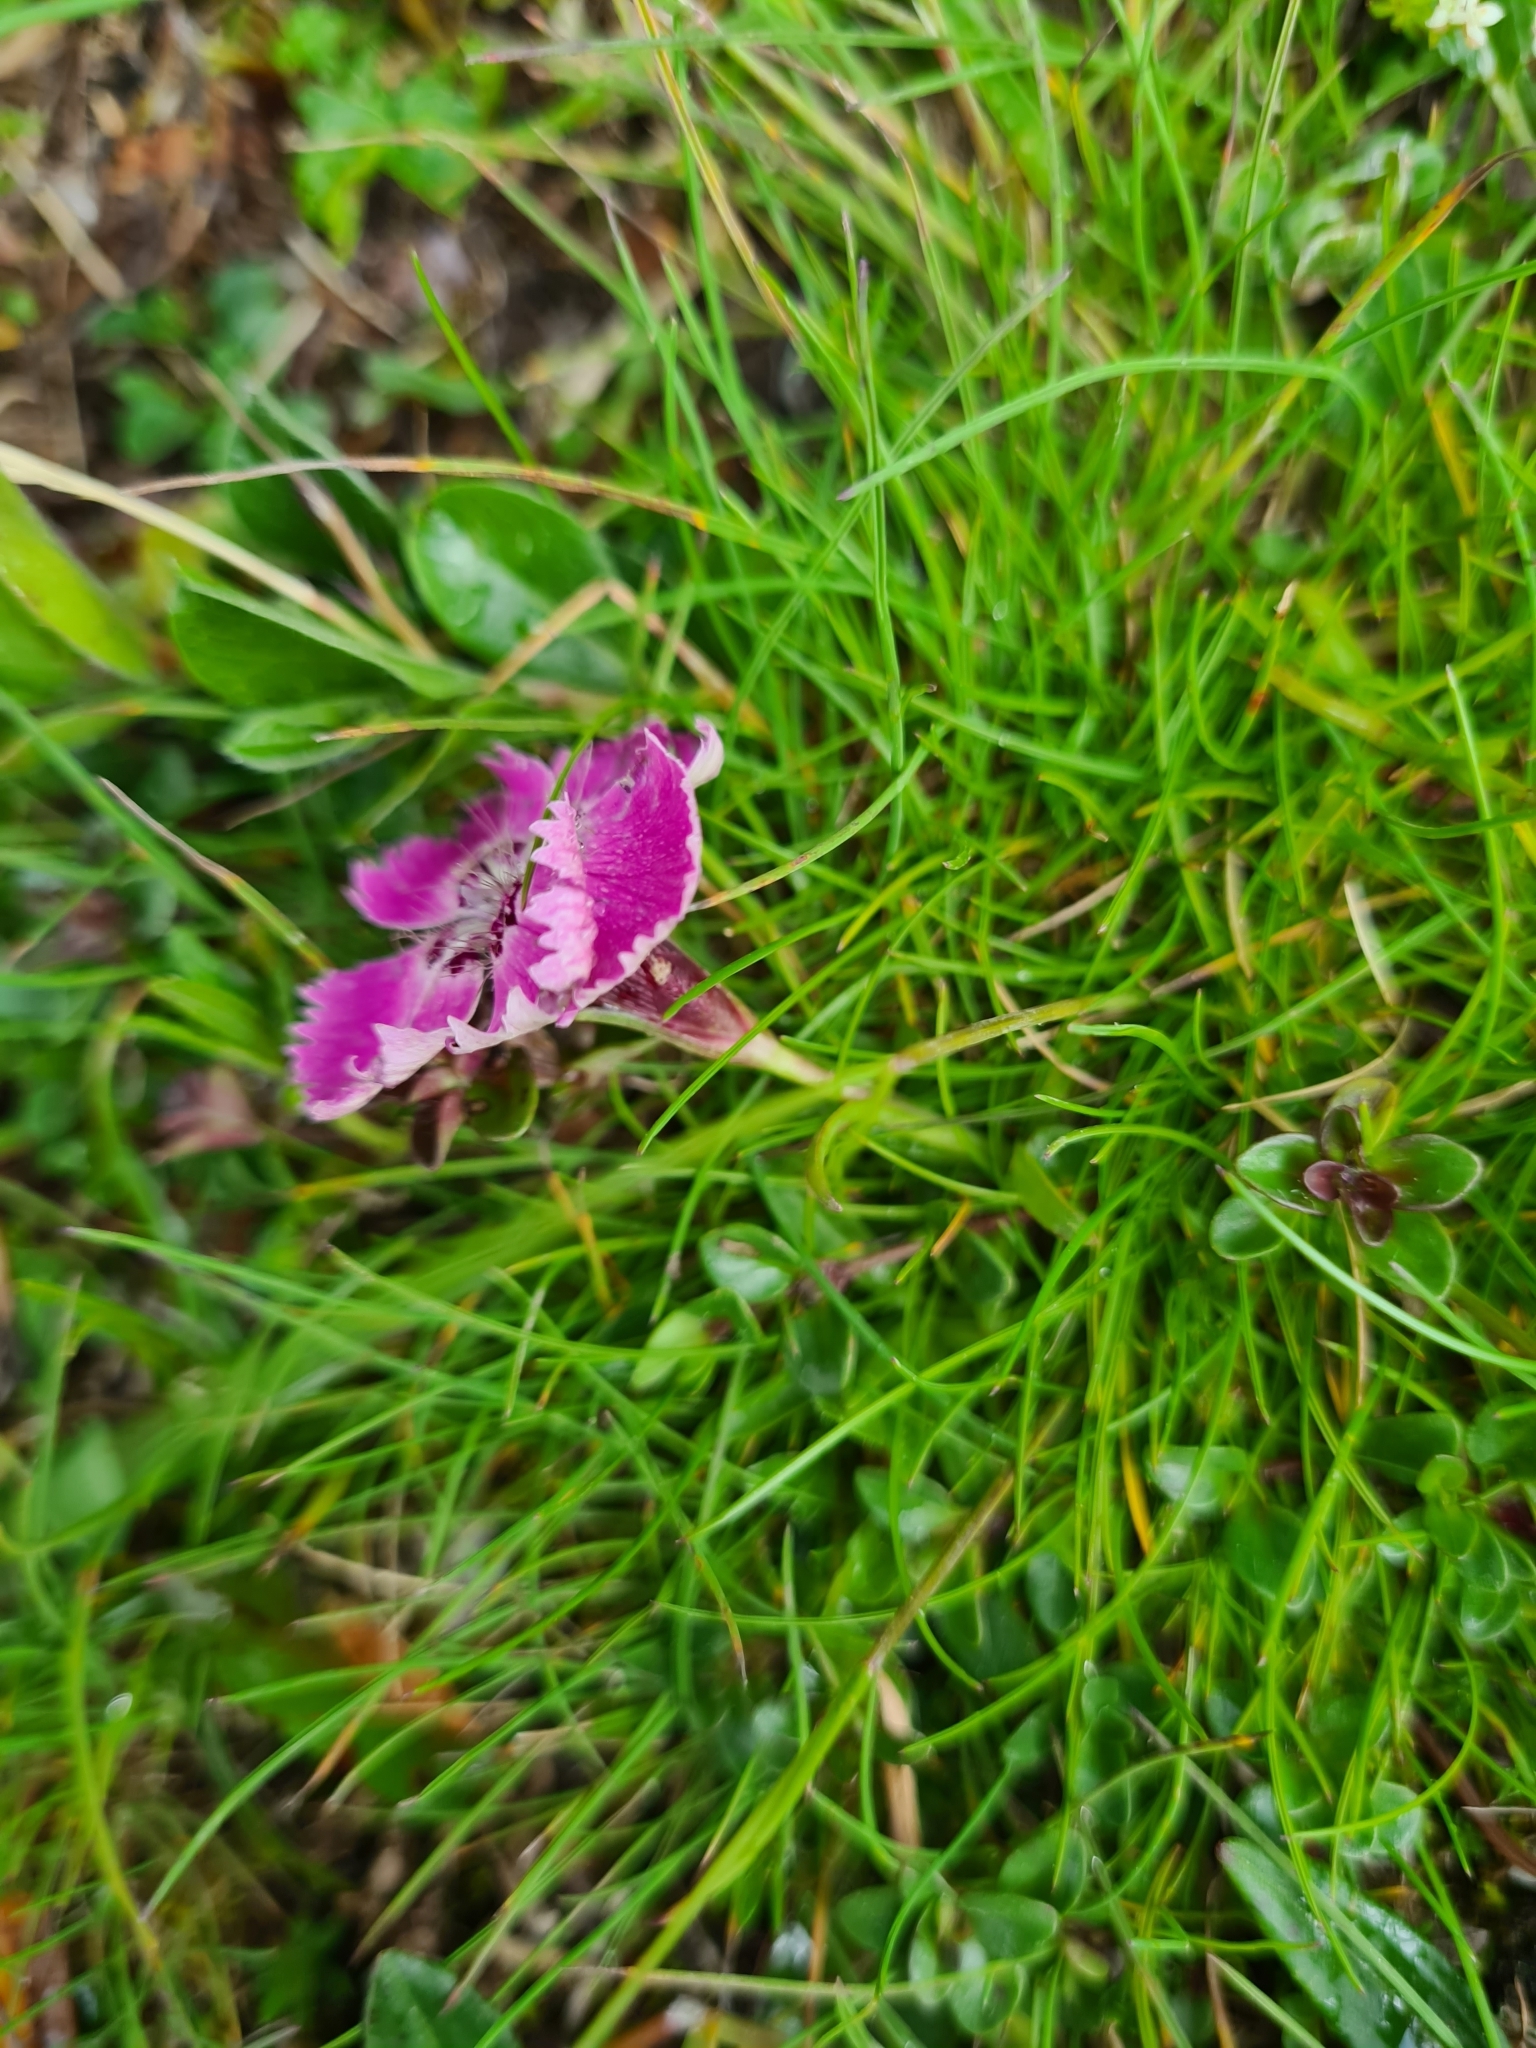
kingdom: Plantae
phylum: Tracheophyta
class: Magnoliopsida
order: Caryophyllales
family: Caryophyllaceae
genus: Dianthus
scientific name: Dianthus alpinus
